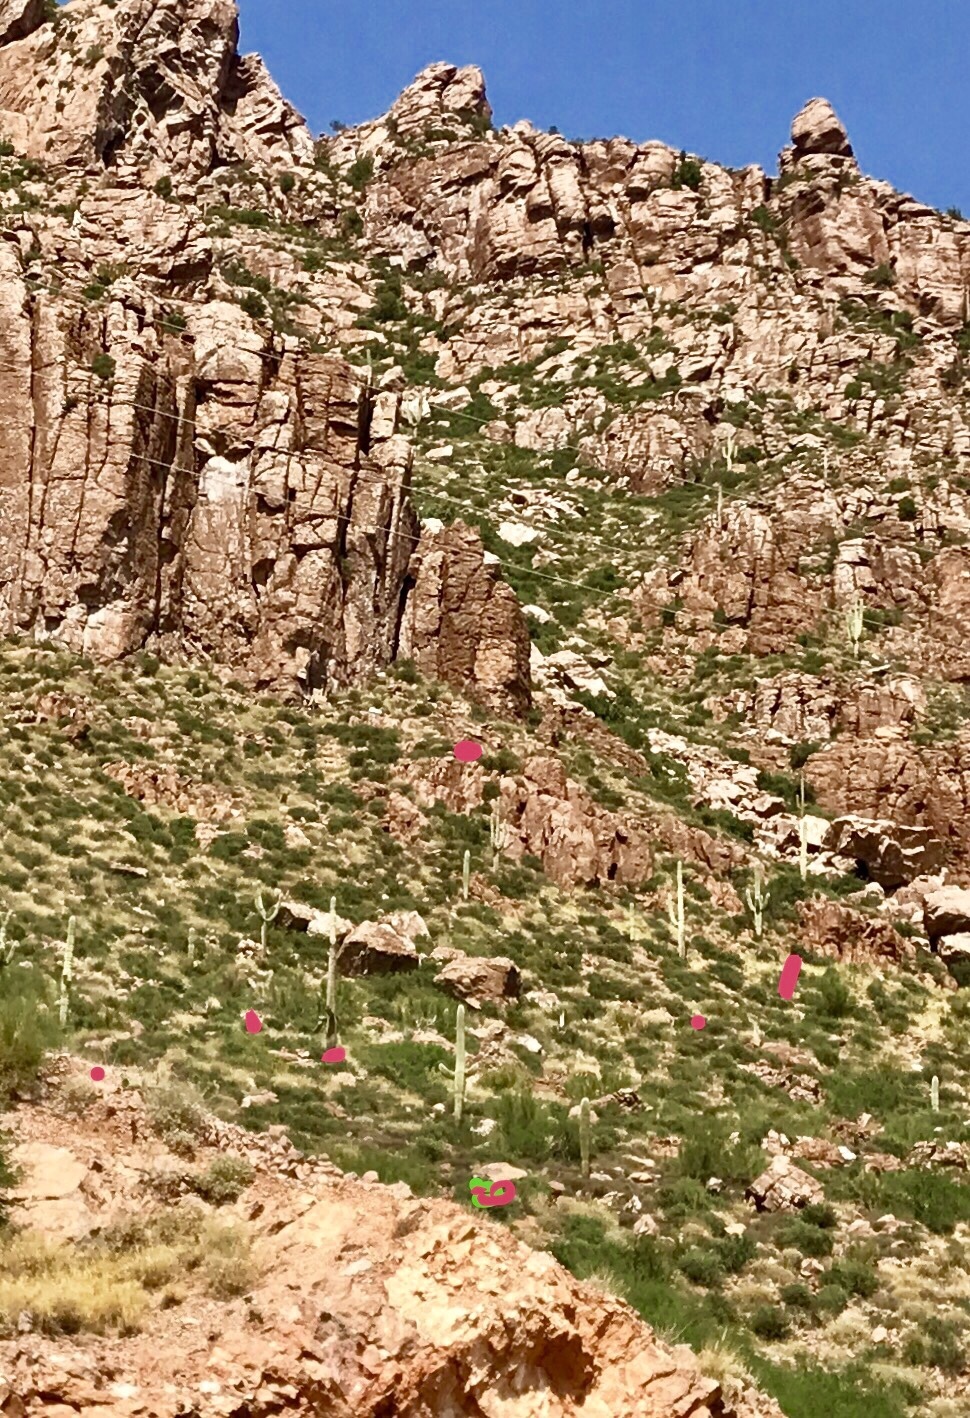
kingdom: Plantae
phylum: Tracheophyta
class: Magnoliopsida
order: Caryophyllales
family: Cactaceae
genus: Carnegiea
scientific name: Carnegiea gigantea
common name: Saguaro
